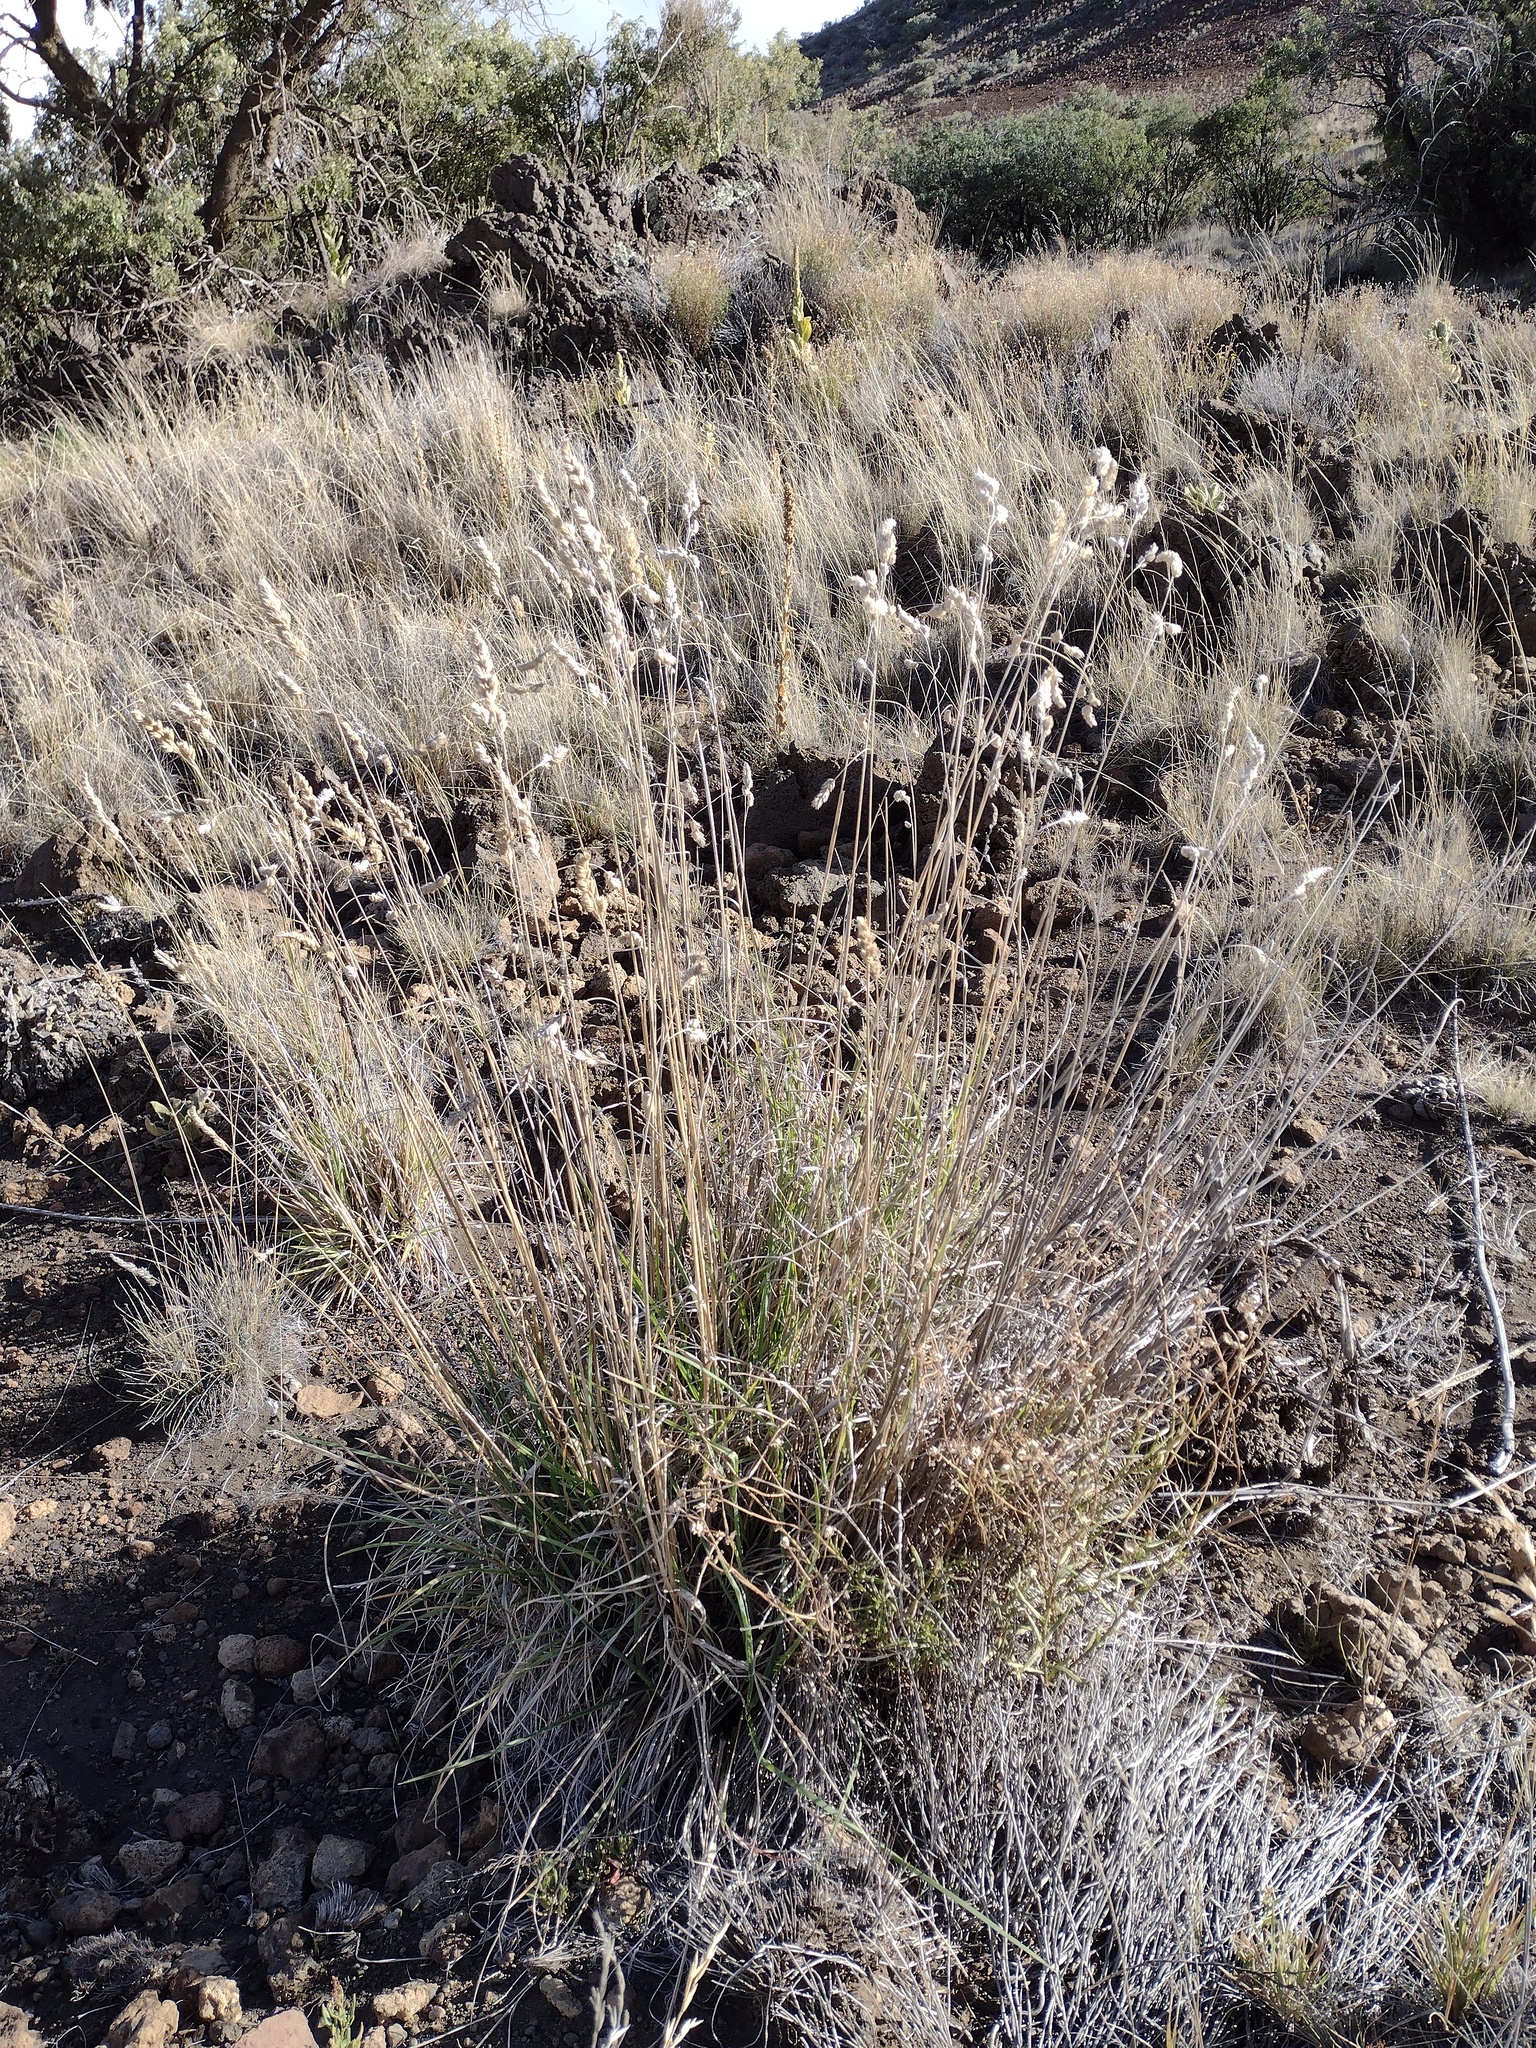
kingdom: Plantae
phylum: Tracheophyta
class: Liliopsida
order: Poales
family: Poaceae
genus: Dactylis
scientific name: Dactylis glomerata
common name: Orchardgrass
